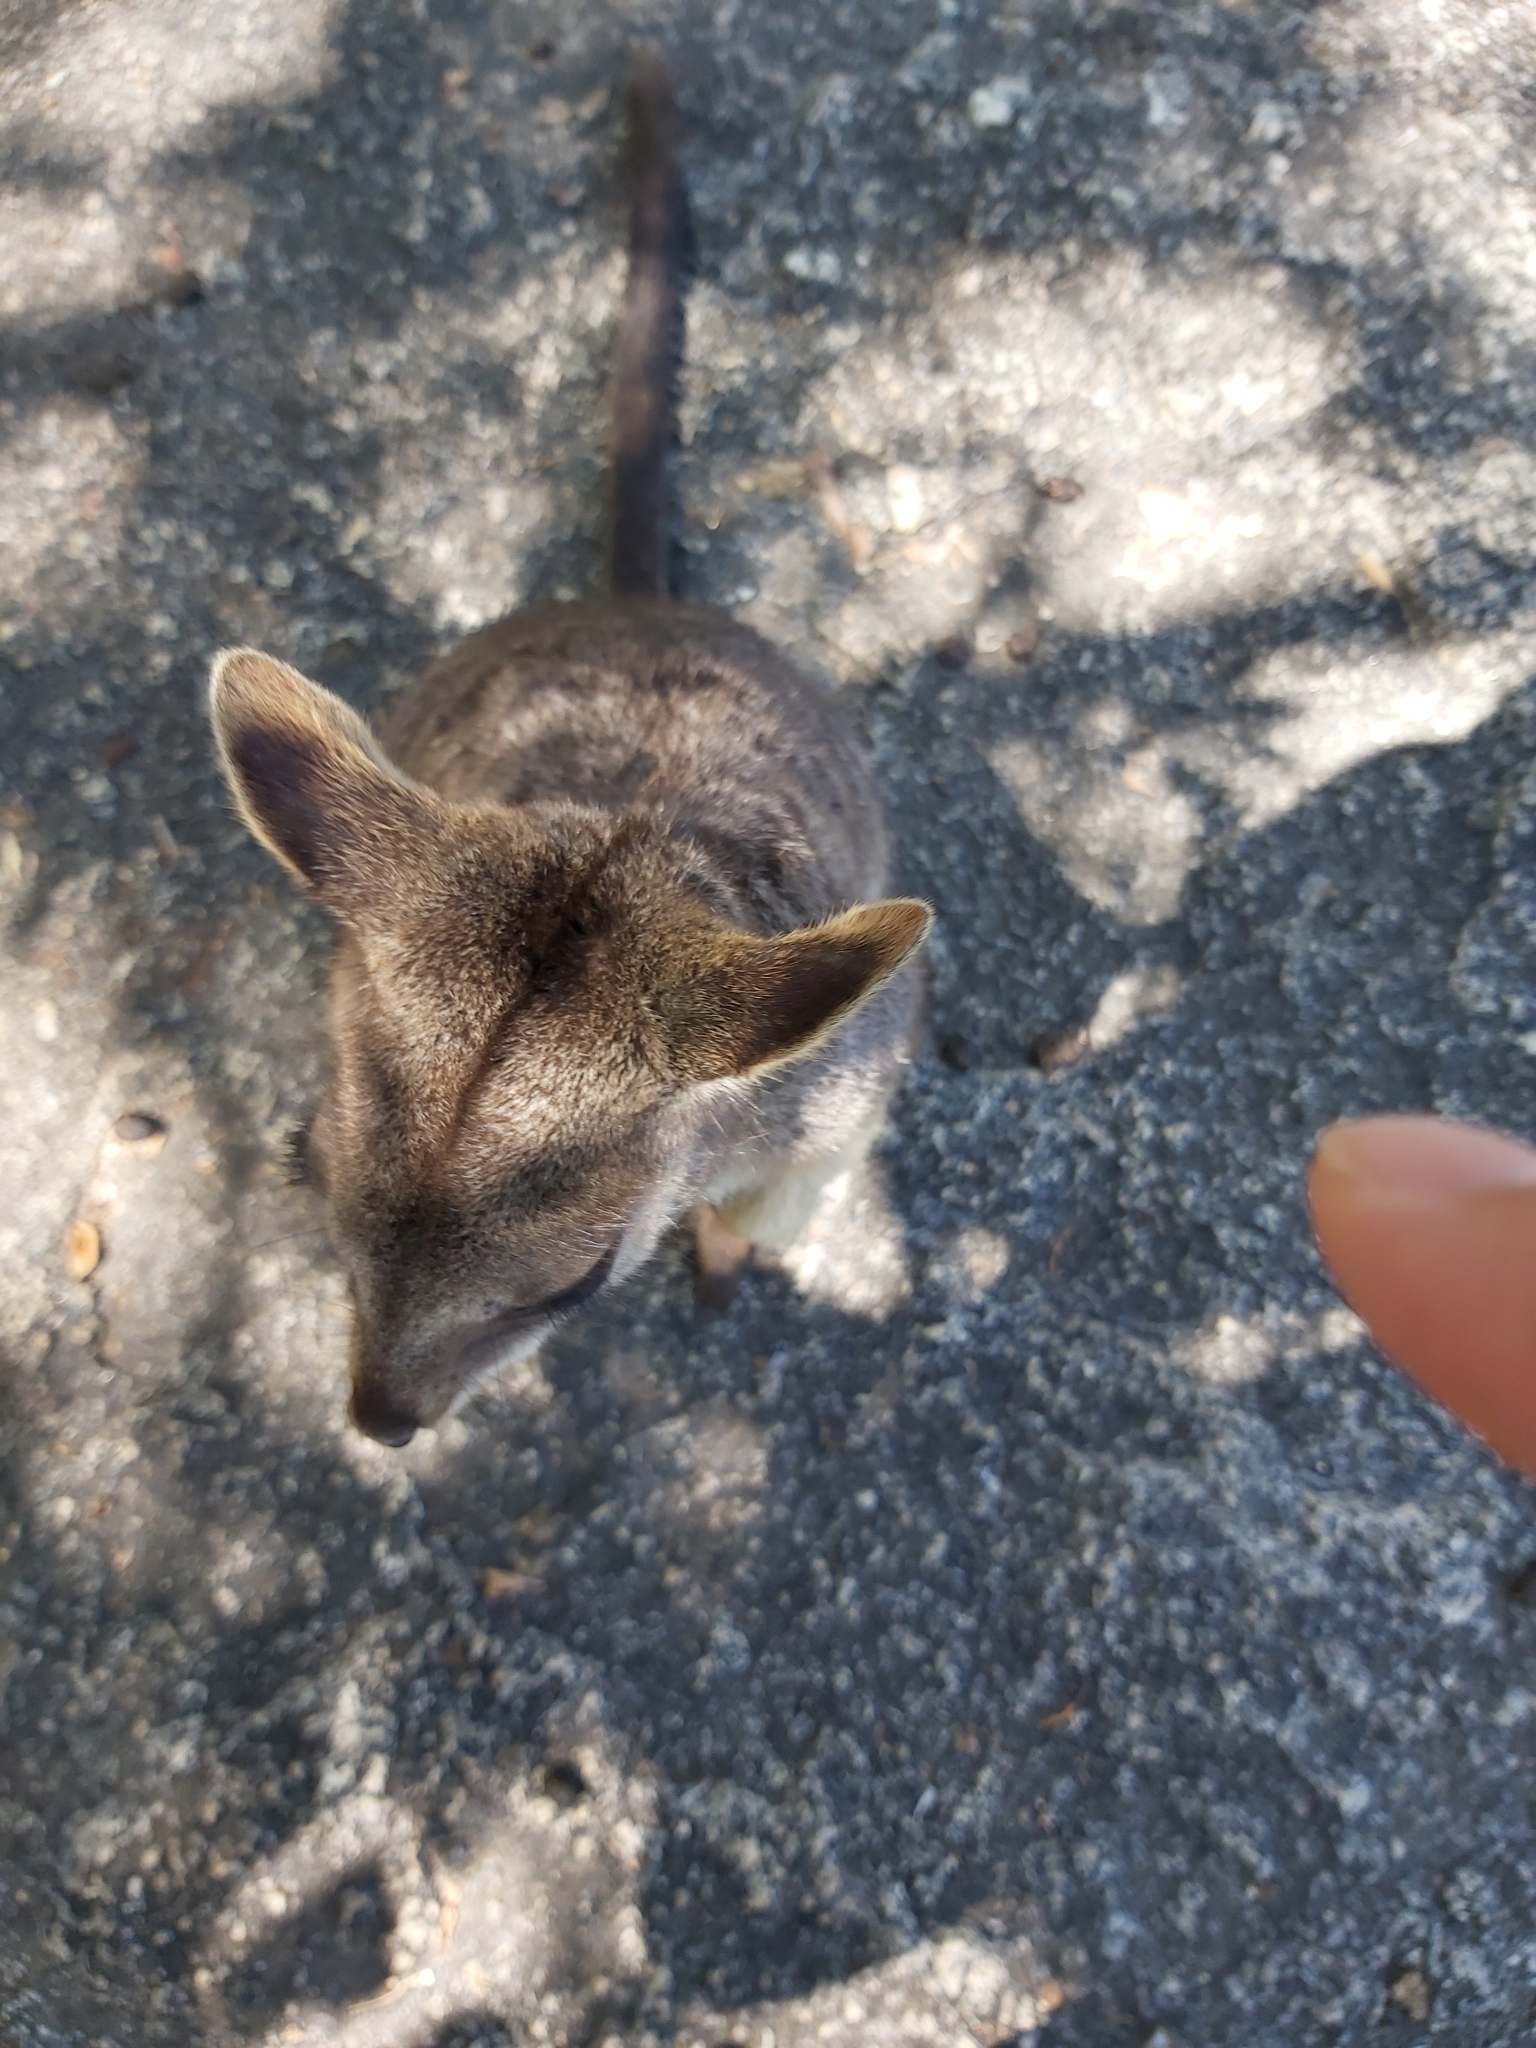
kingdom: Animalia
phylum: Chordata
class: Mammalia
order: Diprotodontia
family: Macropodidae
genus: Petrogale
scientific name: Petrogale mareeba
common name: Mareeba rock-wallaby
